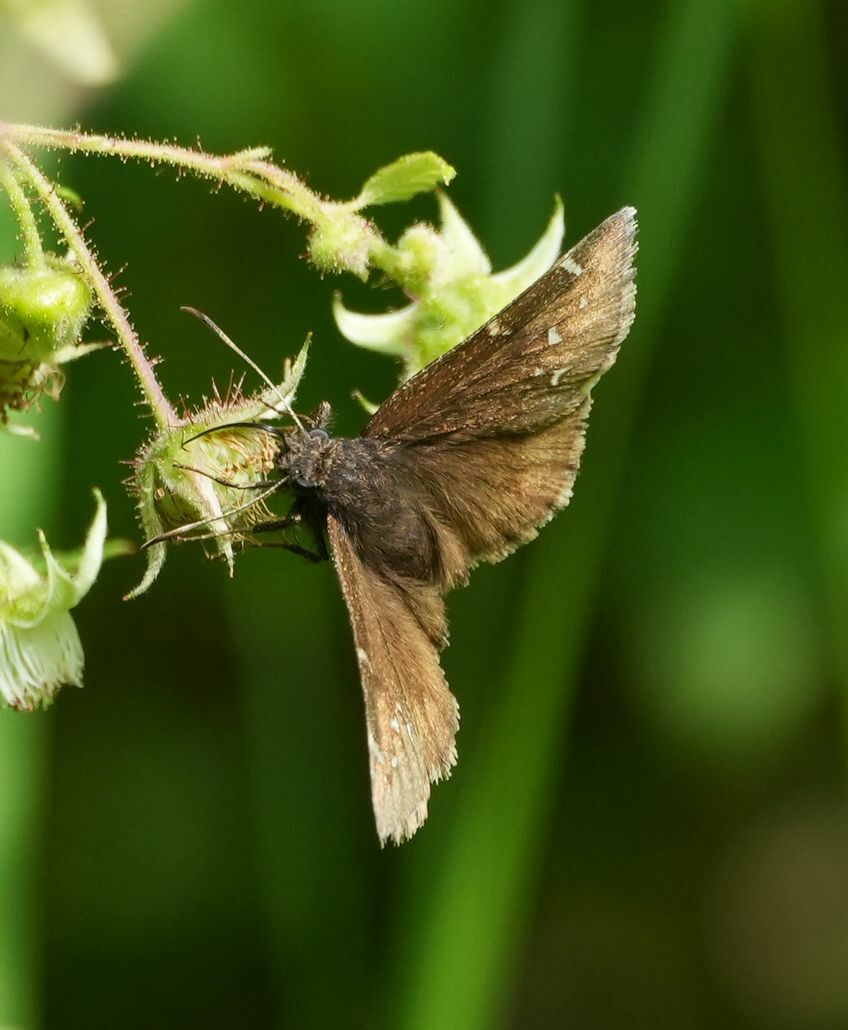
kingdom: Animalia
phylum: Arthropoda
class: Insecta
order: Lepidoptera
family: Hesperiidae
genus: Thorybes
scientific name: Thorybes pylades
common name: Northern cloudywing
